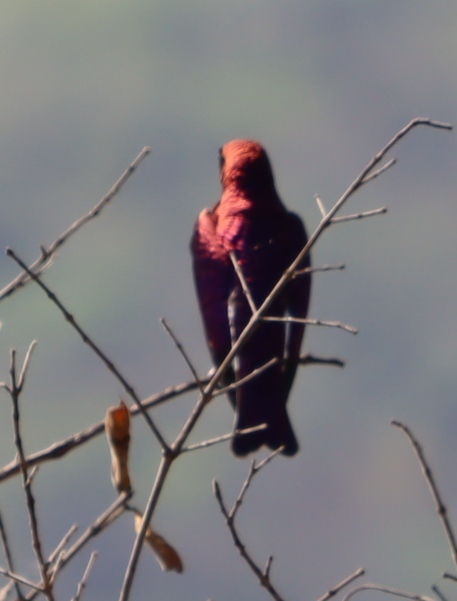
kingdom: Animalia
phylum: Chordata
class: Aves
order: Passeriformes
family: Sturnidae
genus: Cinnyricinclus
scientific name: Cinnyricinclus leucogaster
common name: Violet-backed starling
